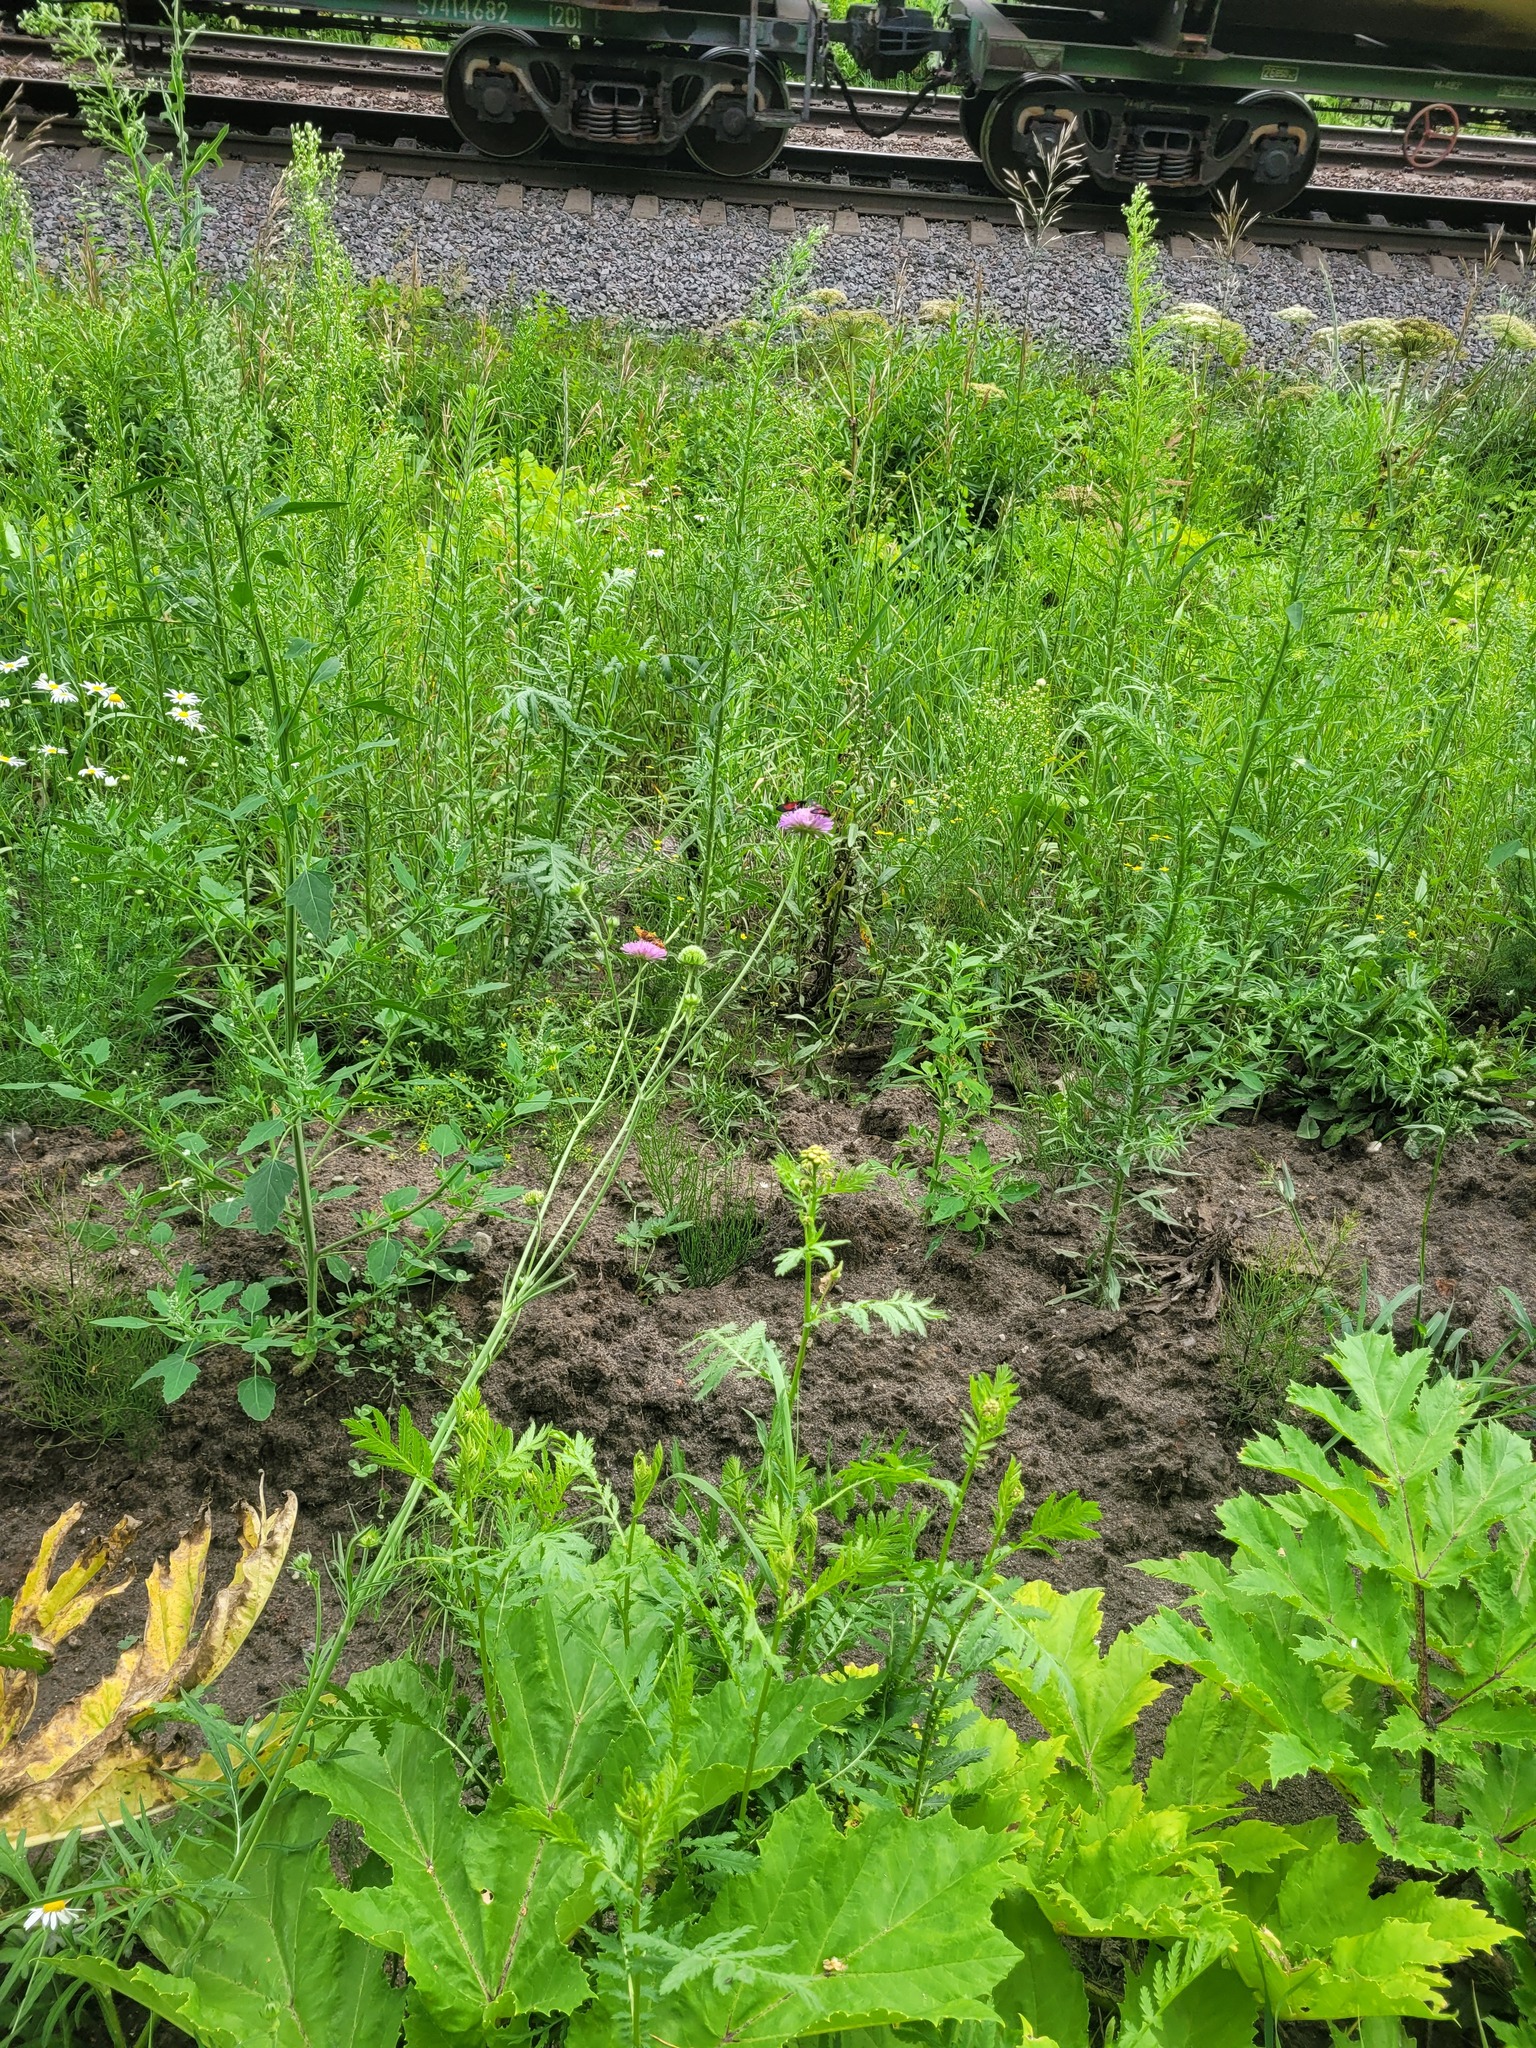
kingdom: Plantae
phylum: Tracheophyta
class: Magnoliopsida
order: Dipsacales
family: Caprifoliaceae
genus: Knautia
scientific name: Knautia arvensis
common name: Field scabiosa
